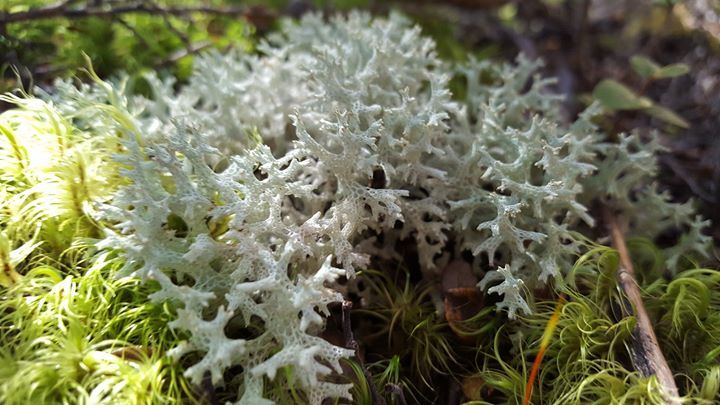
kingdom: Fungi
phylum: Ascomycota
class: Lecanoromycetes
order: Lecanorales
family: Cladoniaceae
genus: Pulchrocladia
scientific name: Pulchrocladia retipora
